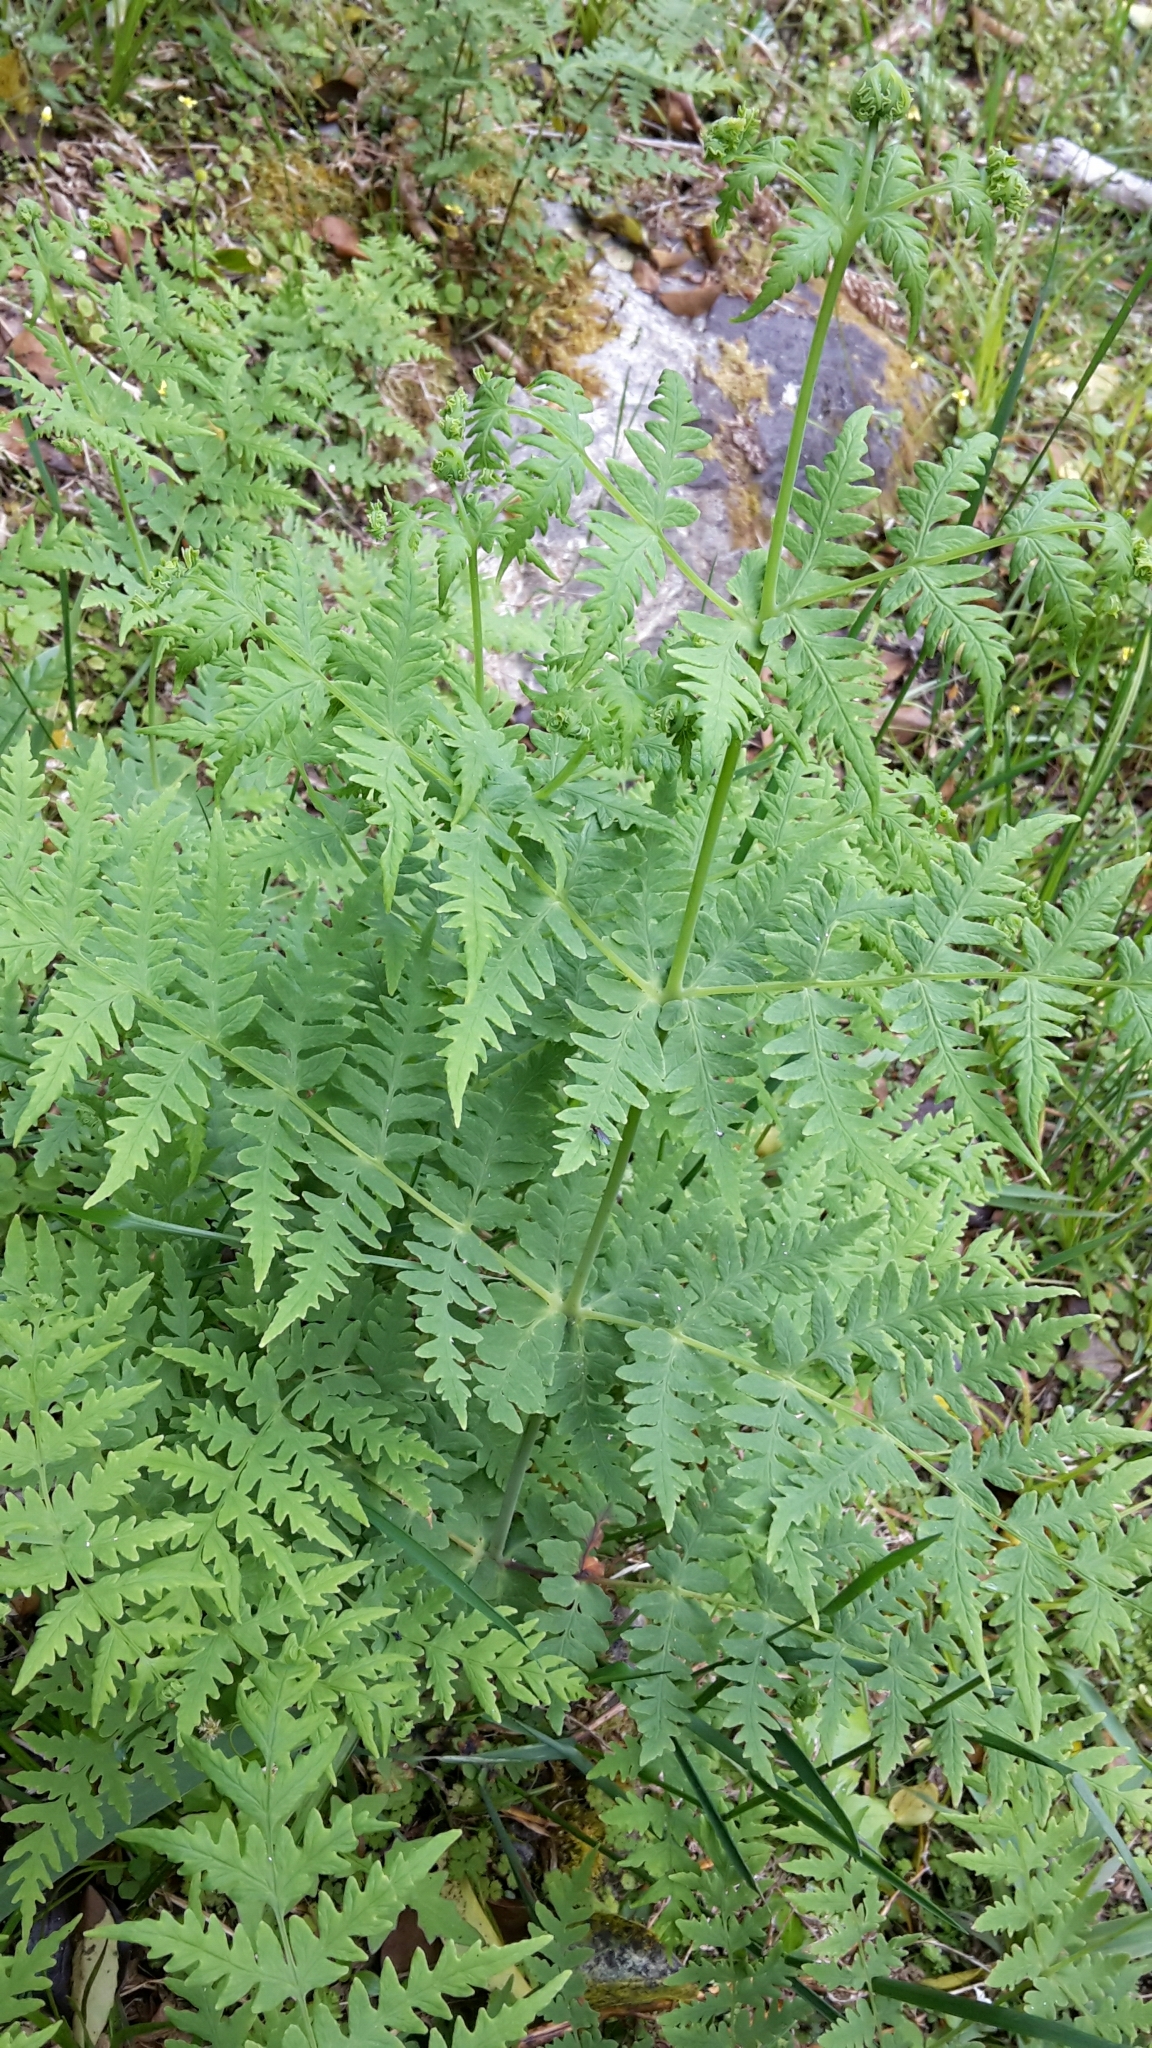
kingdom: Plantae
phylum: Tracheophyta
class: Polypodiopsida
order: Polypodiales
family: Dennstaedtiaceae
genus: Histiopteris
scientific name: Histiopteris incisa
